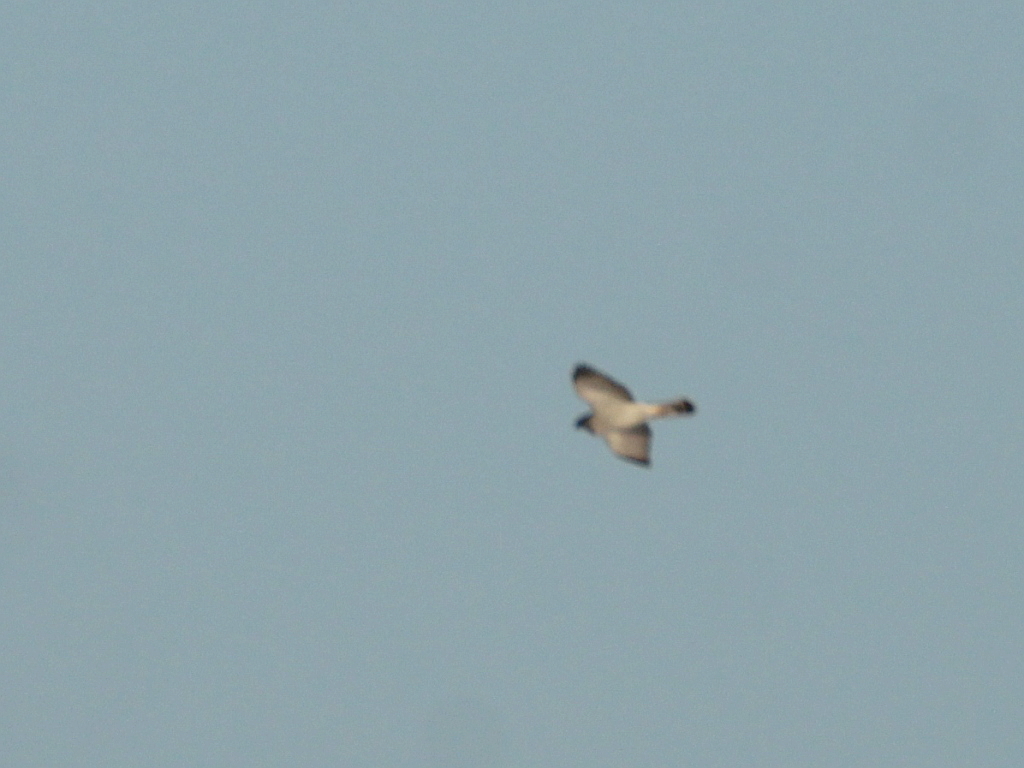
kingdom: Animalia
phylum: Chordata
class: Aves
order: Accipitriformes
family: Accipitridae
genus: Accipiter
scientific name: Accipiter gentilis
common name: Northern goshawk
